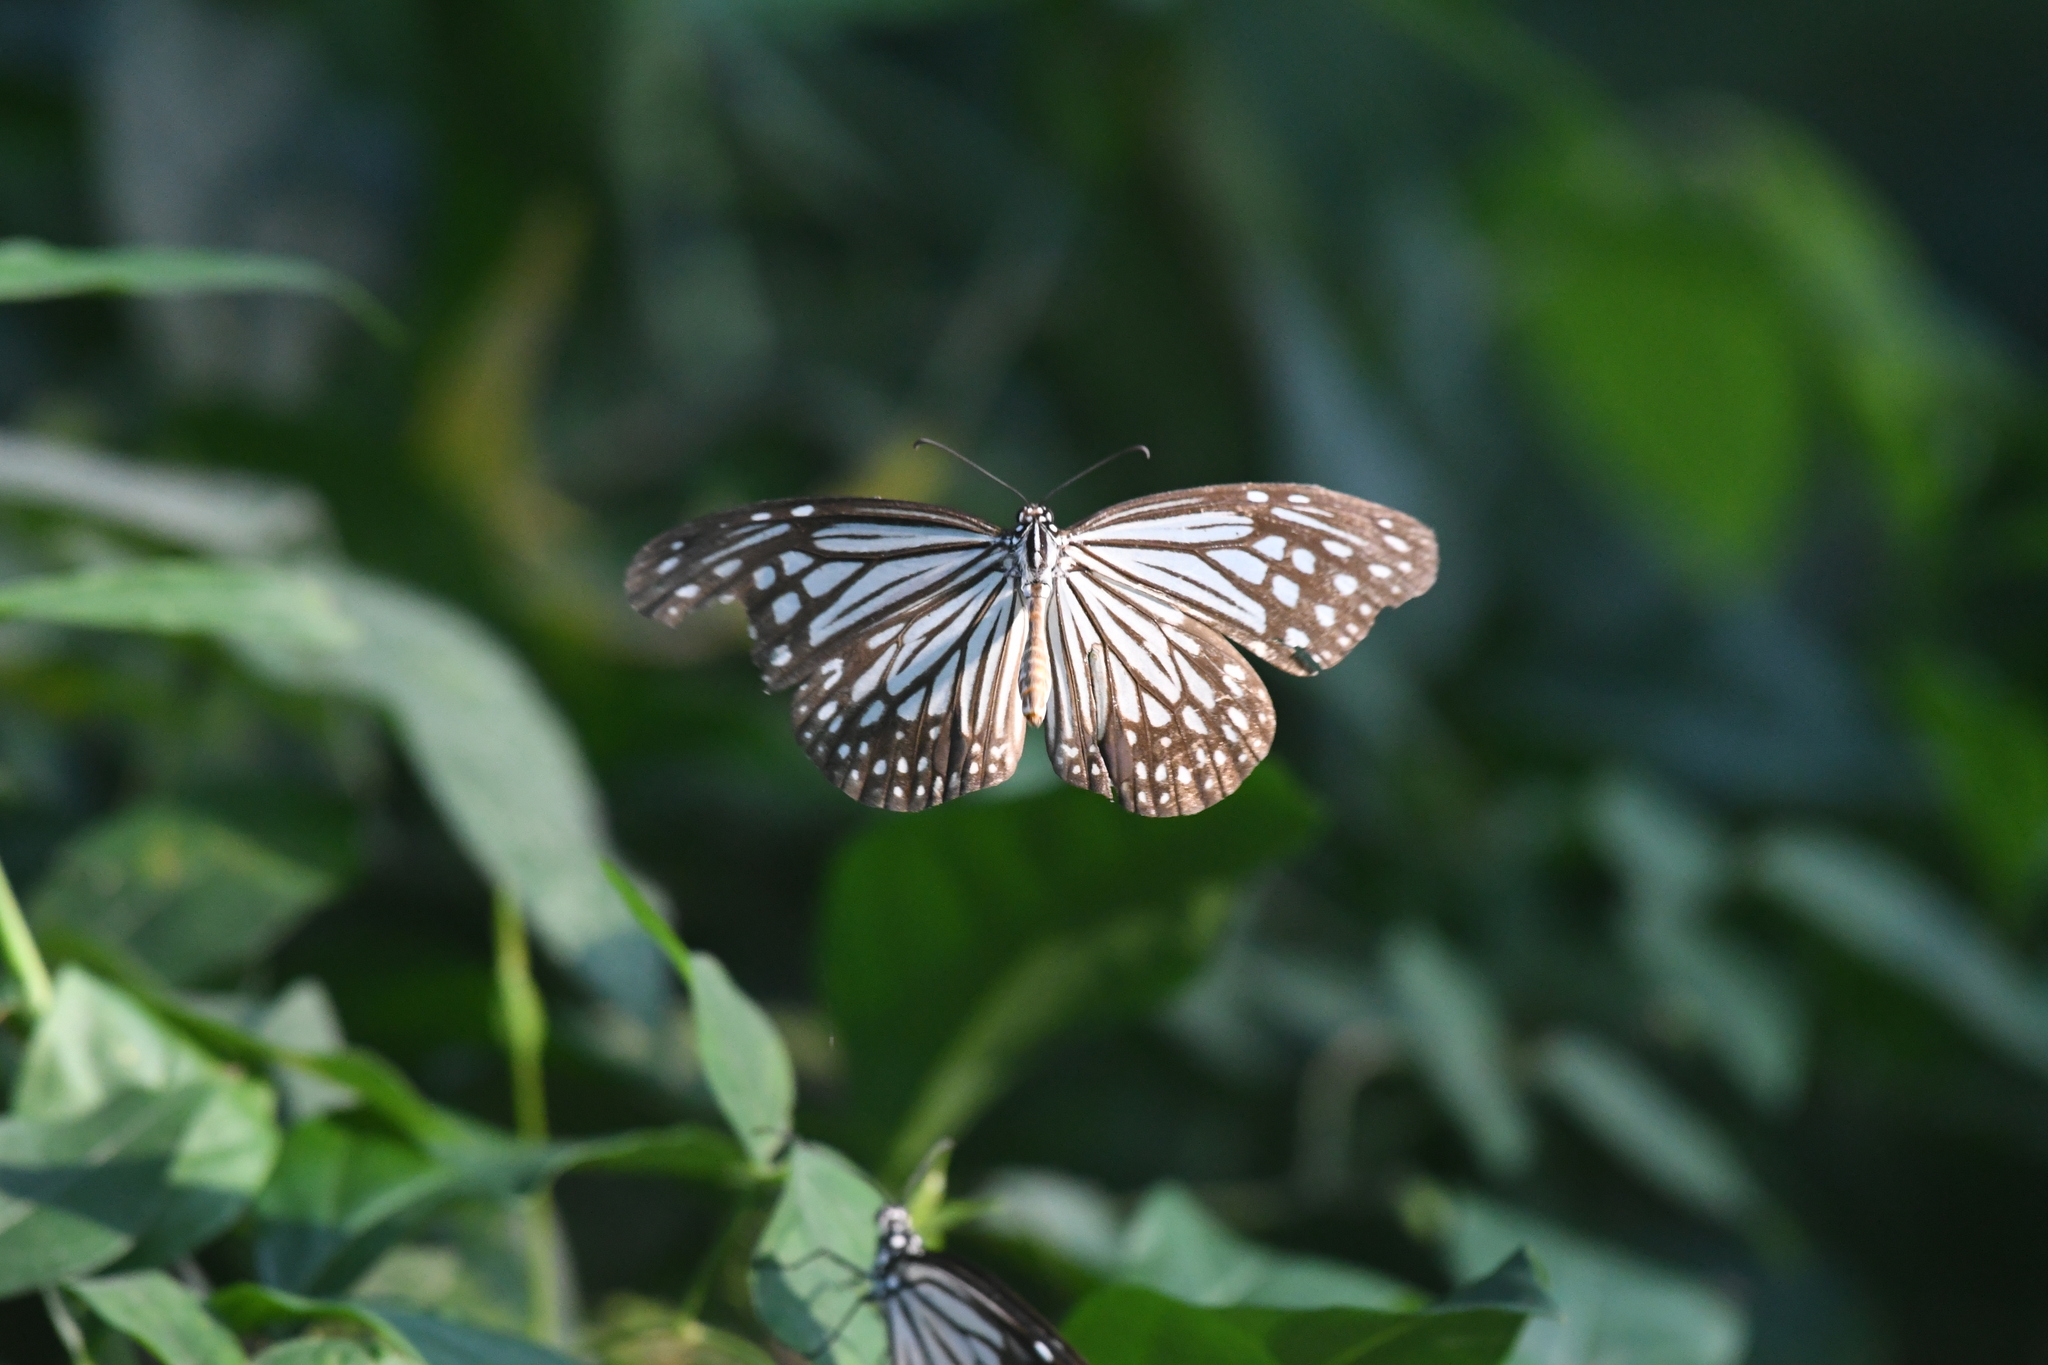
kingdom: Animalia
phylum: Arthropoda
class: Insecta
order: Lepidoptera
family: Nymphalidae
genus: Parantica
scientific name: Parantica aglea
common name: Glassy tiger
